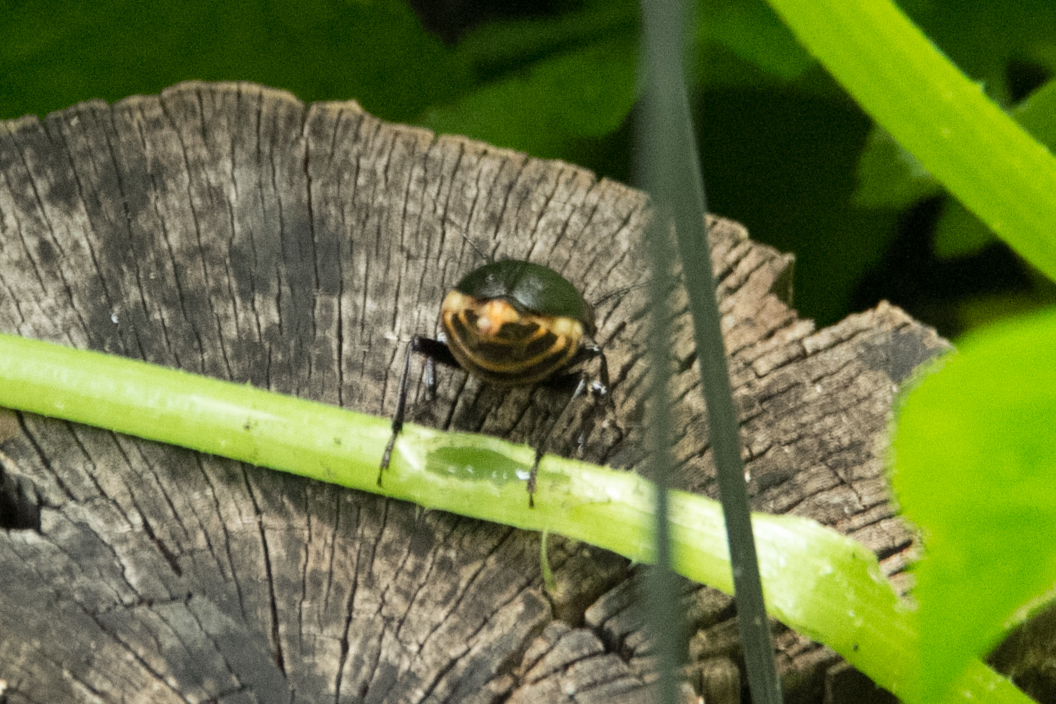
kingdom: Animalia
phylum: Arthropoda
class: Insecta
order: Coleoptera
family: Cerambycidae
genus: Prionus
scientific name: Prionus laticollis
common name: Broad necked prionus
